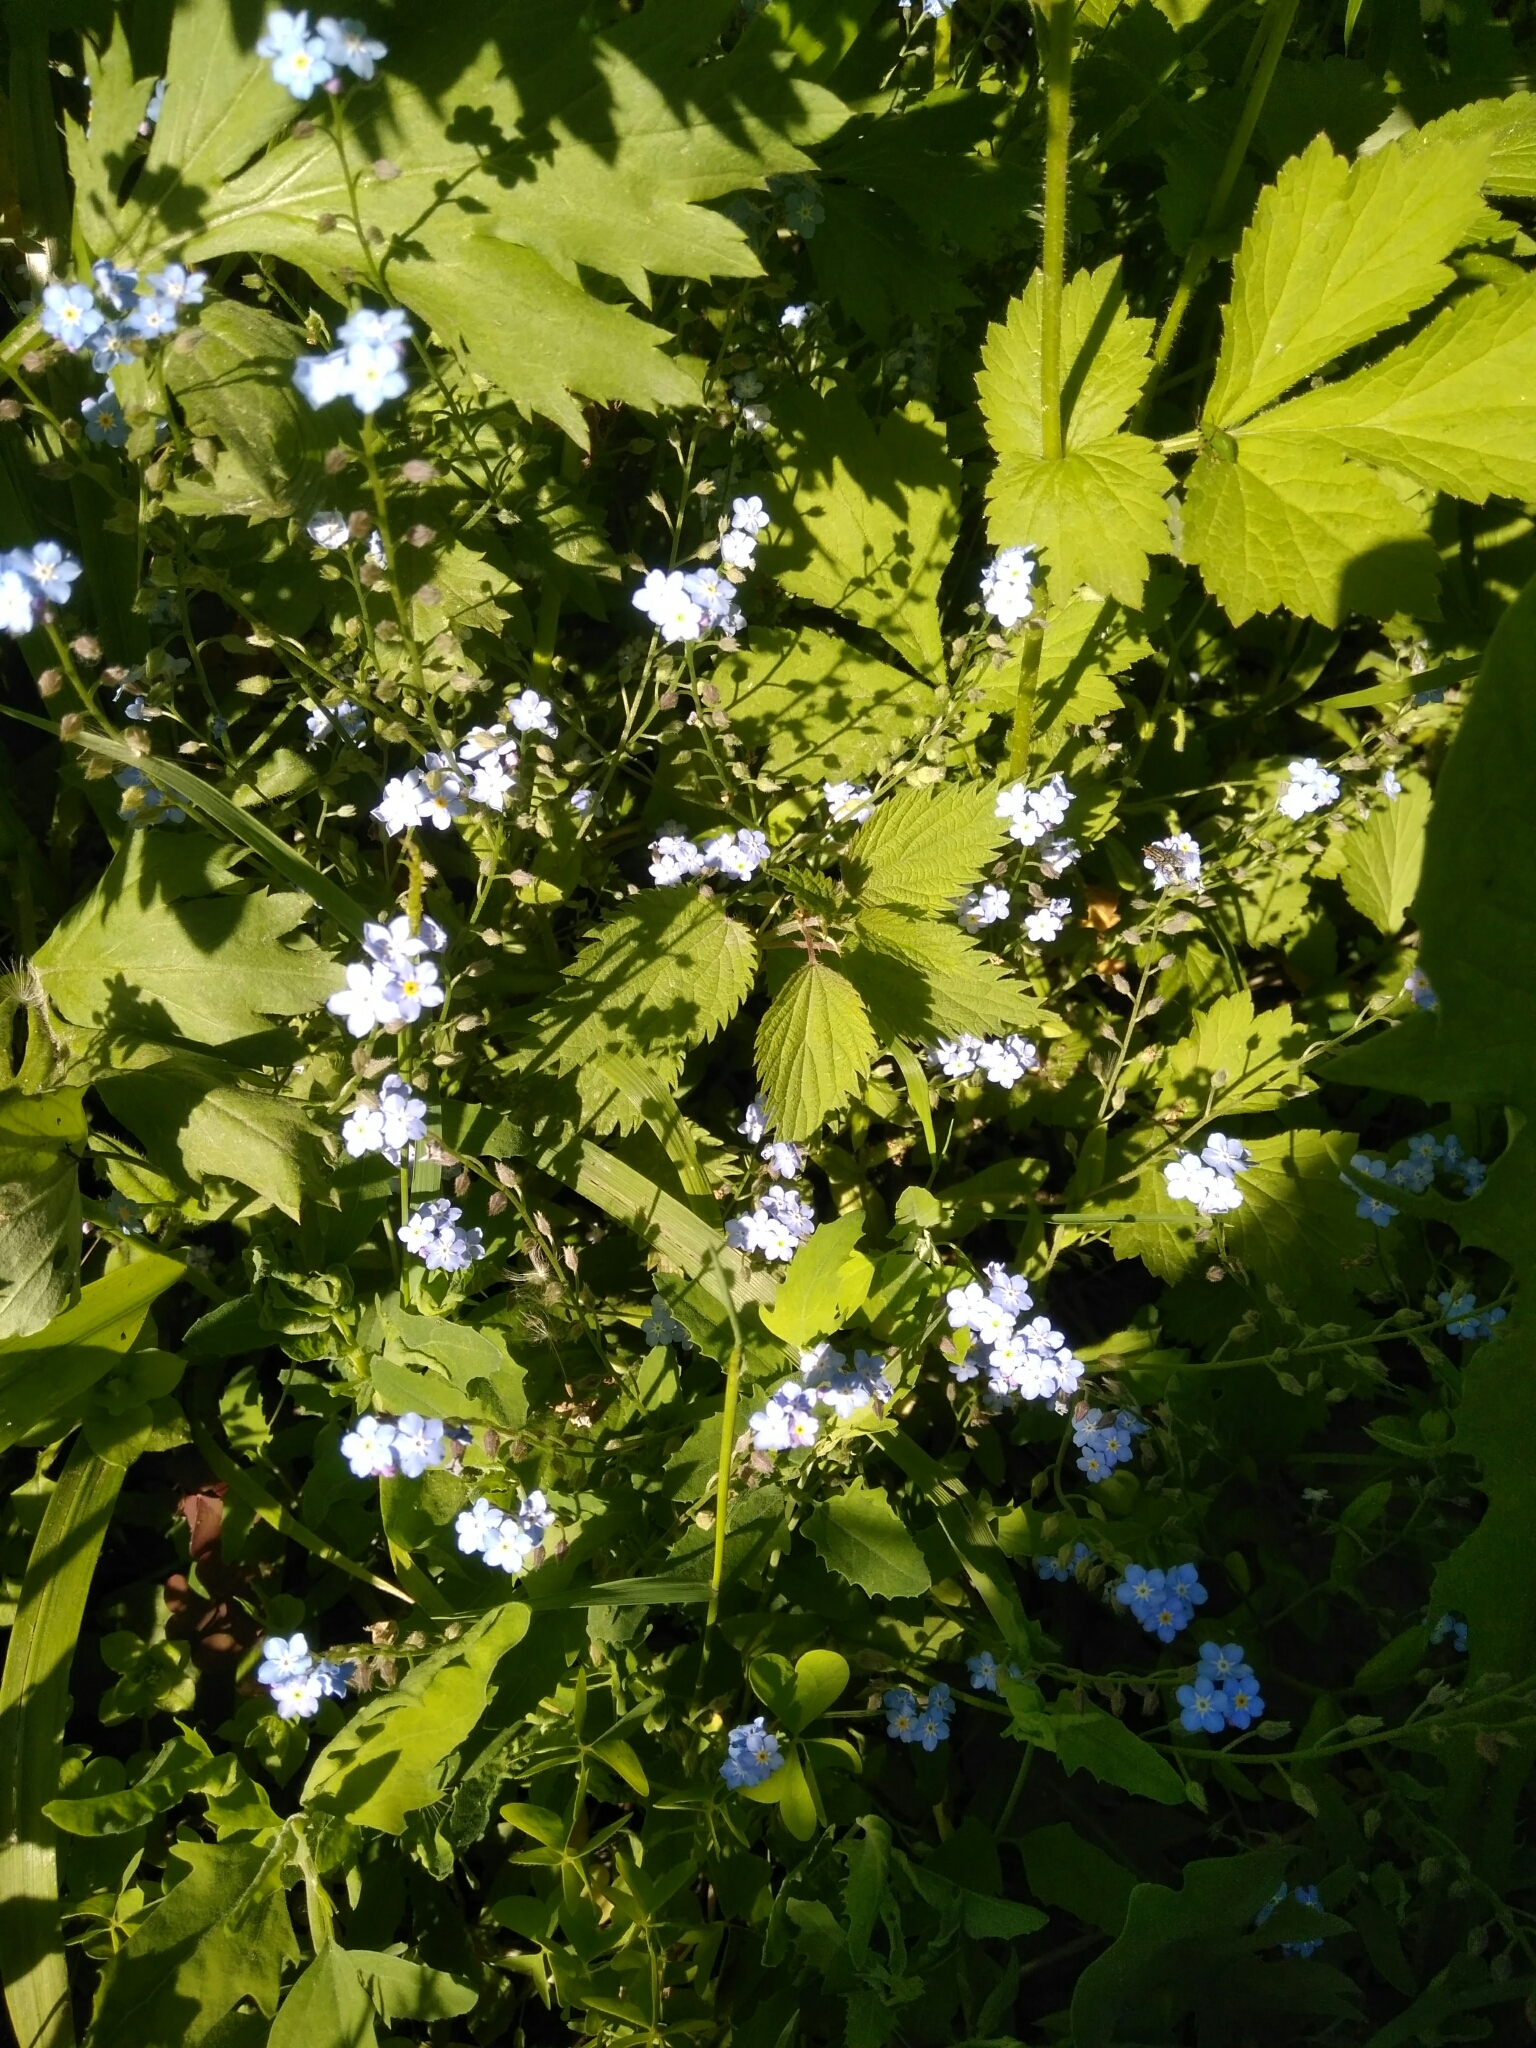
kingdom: Plantae
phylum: Tracheophyta
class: Magnoliopsida
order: Boraginales
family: Boraginaceae
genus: Myosotis
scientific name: Myosotis sylvatica
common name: Wood forget-me-not
